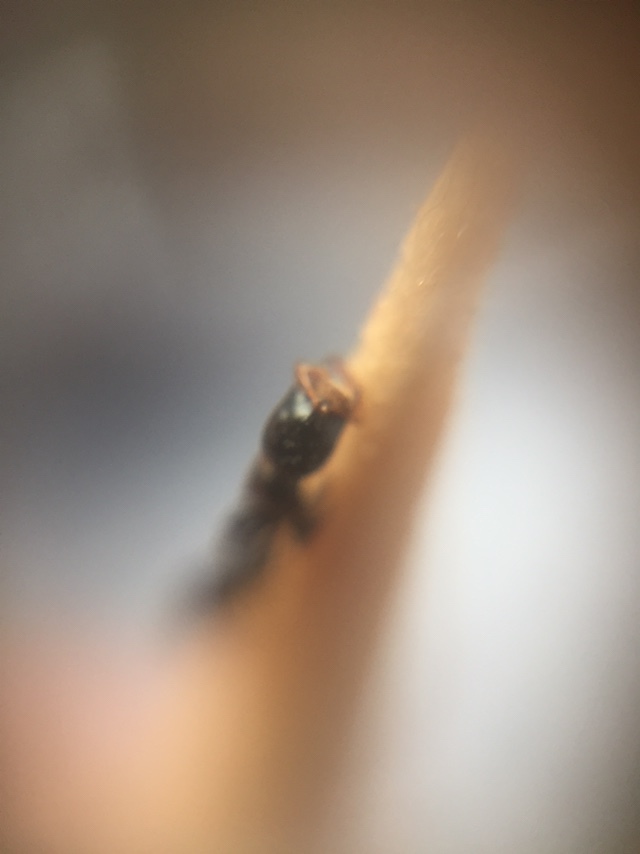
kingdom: Animalia
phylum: Arthropoda
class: Insecta
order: Hymenoptera
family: Formicidae
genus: Tetraponera
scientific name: Tetraponera allaborans
